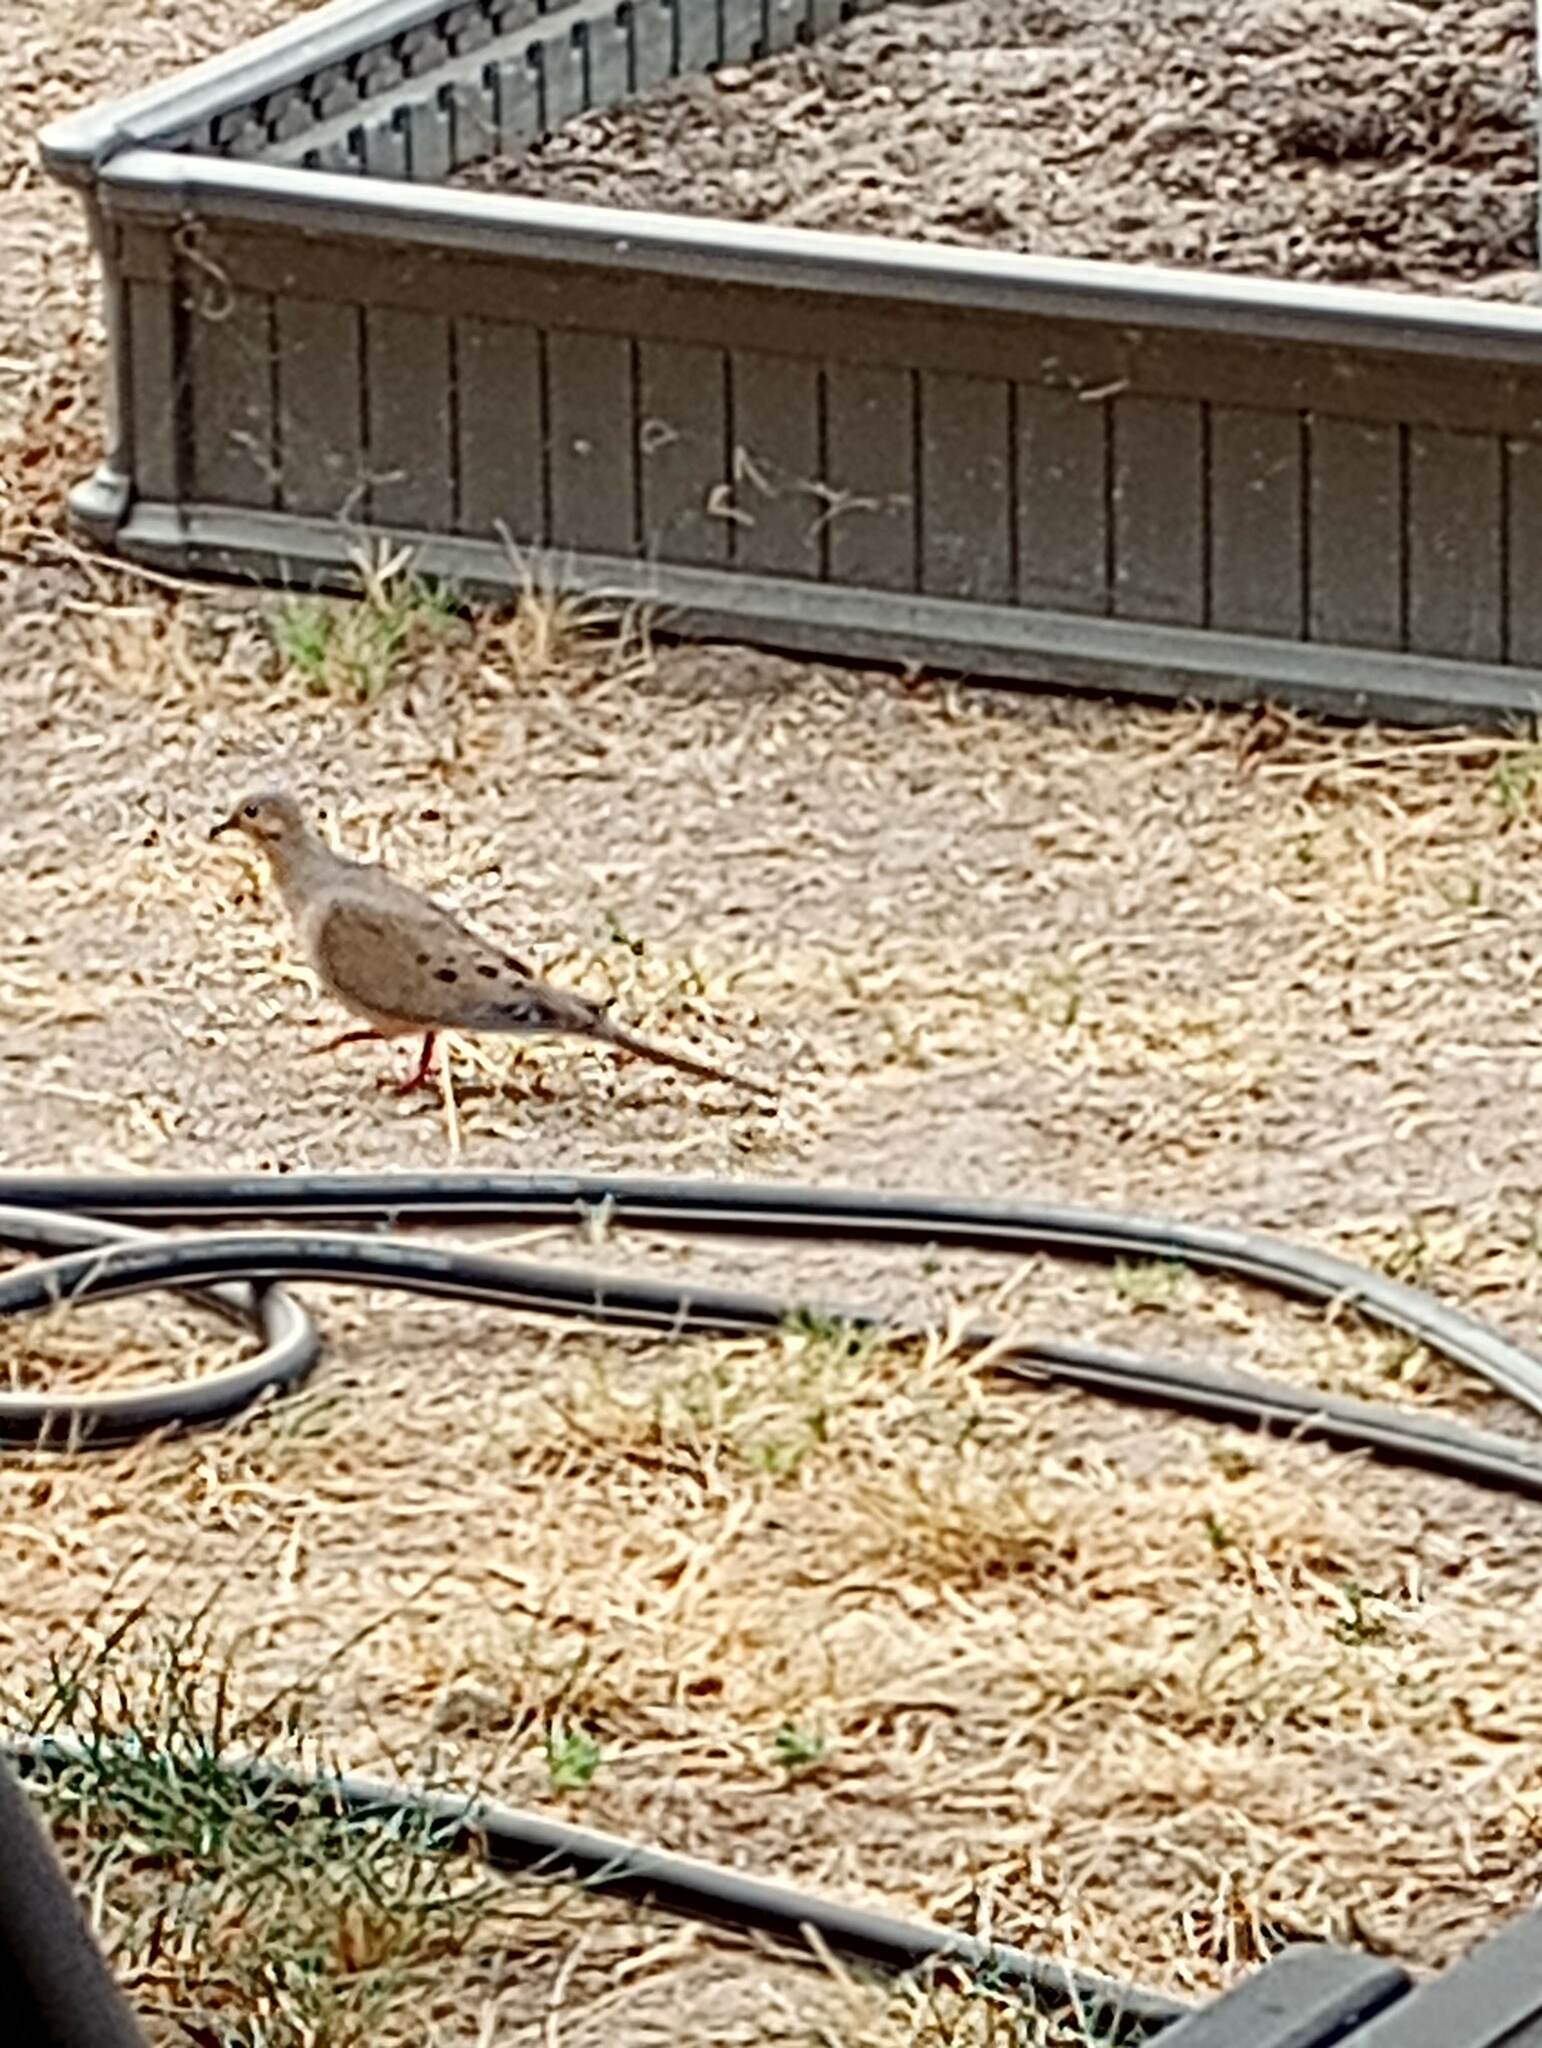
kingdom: Animalia
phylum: Chordata
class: Aves
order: Columbiformes
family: Columbidae
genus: Zenaida
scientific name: Zenaida macroura
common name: Mourning dove
